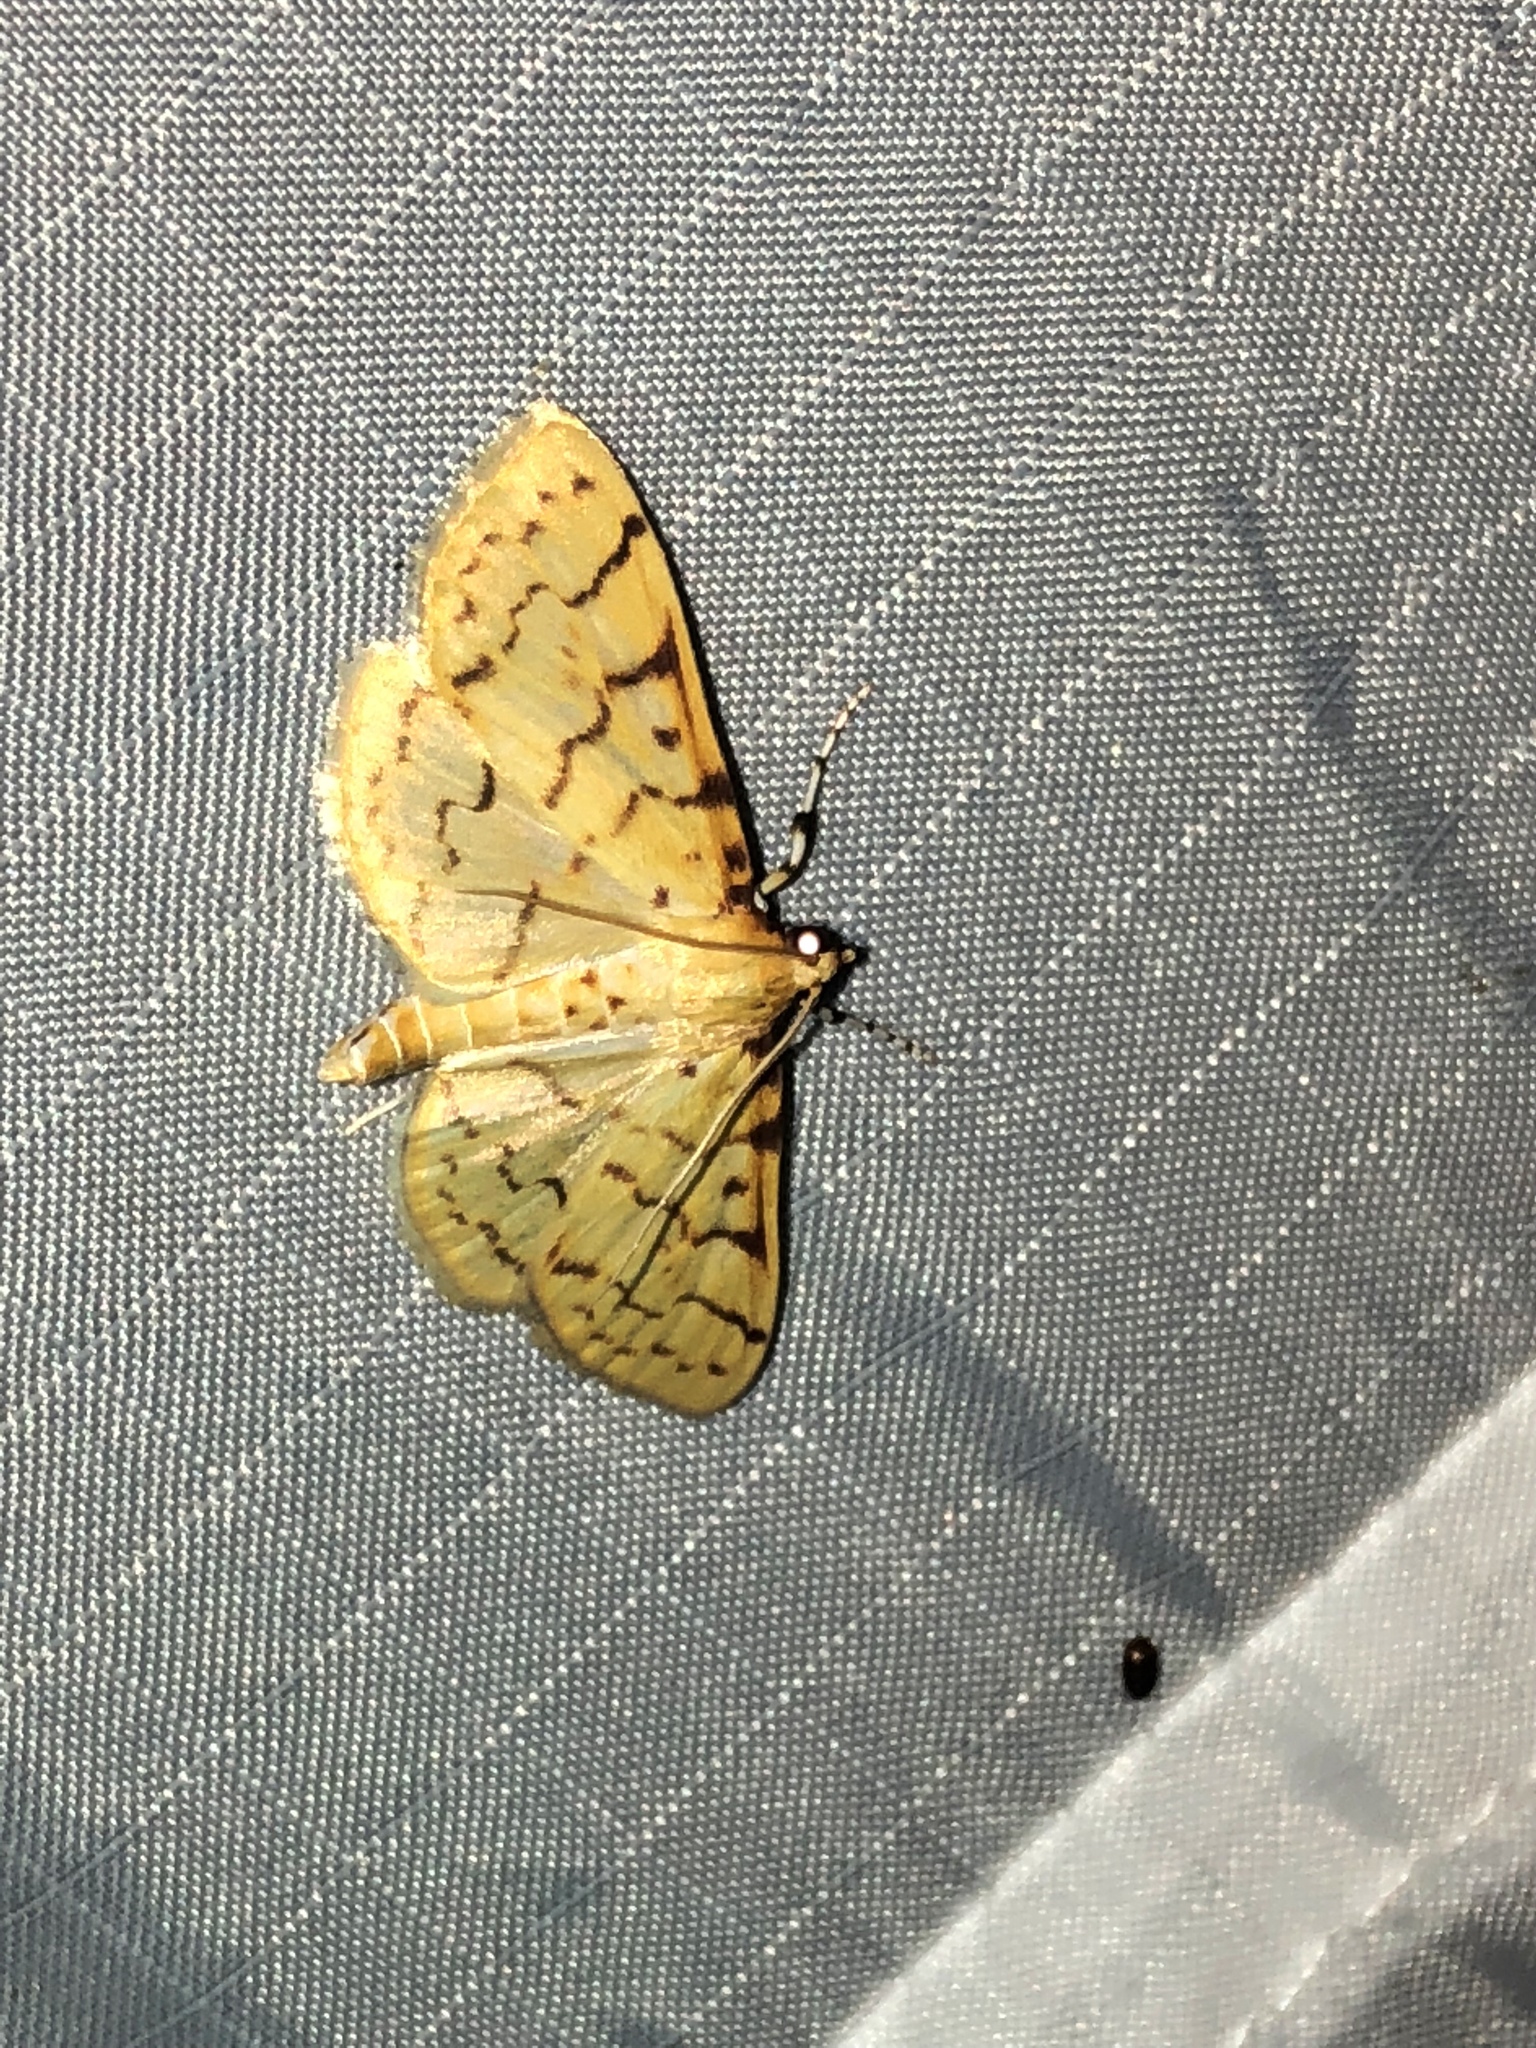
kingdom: Animalia
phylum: Arthropoda
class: Insecta
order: Lepidoptera
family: Crambidae
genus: Polygrammodes
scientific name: Polygrammodes flavidalis
